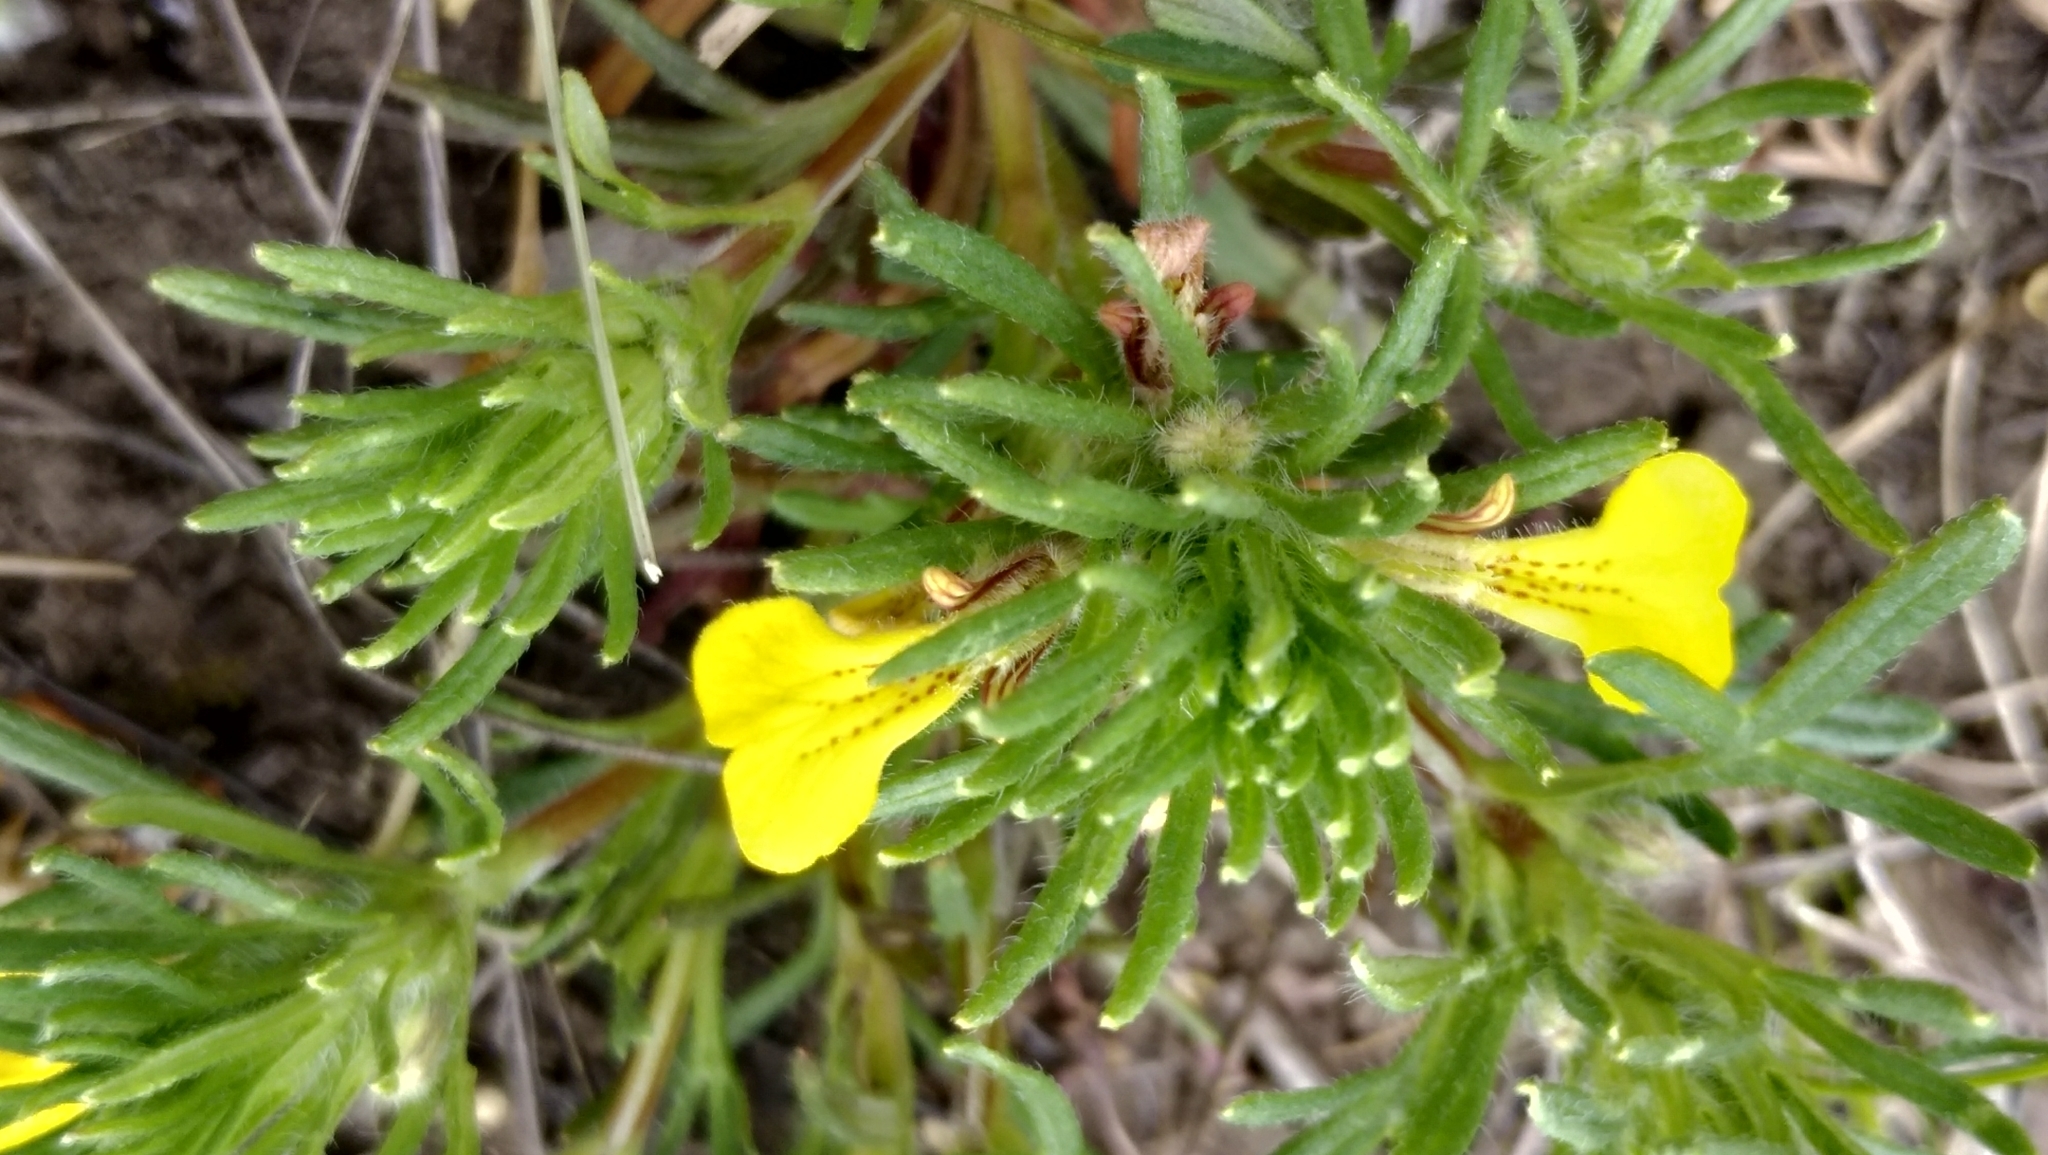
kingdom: Plantae
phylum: Tracheophyta
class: Magnoliopsida
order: Lamiales
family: Lamiaceae
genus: Ajuga
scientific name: Ajuga chamaepitys
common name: Ground-pine
